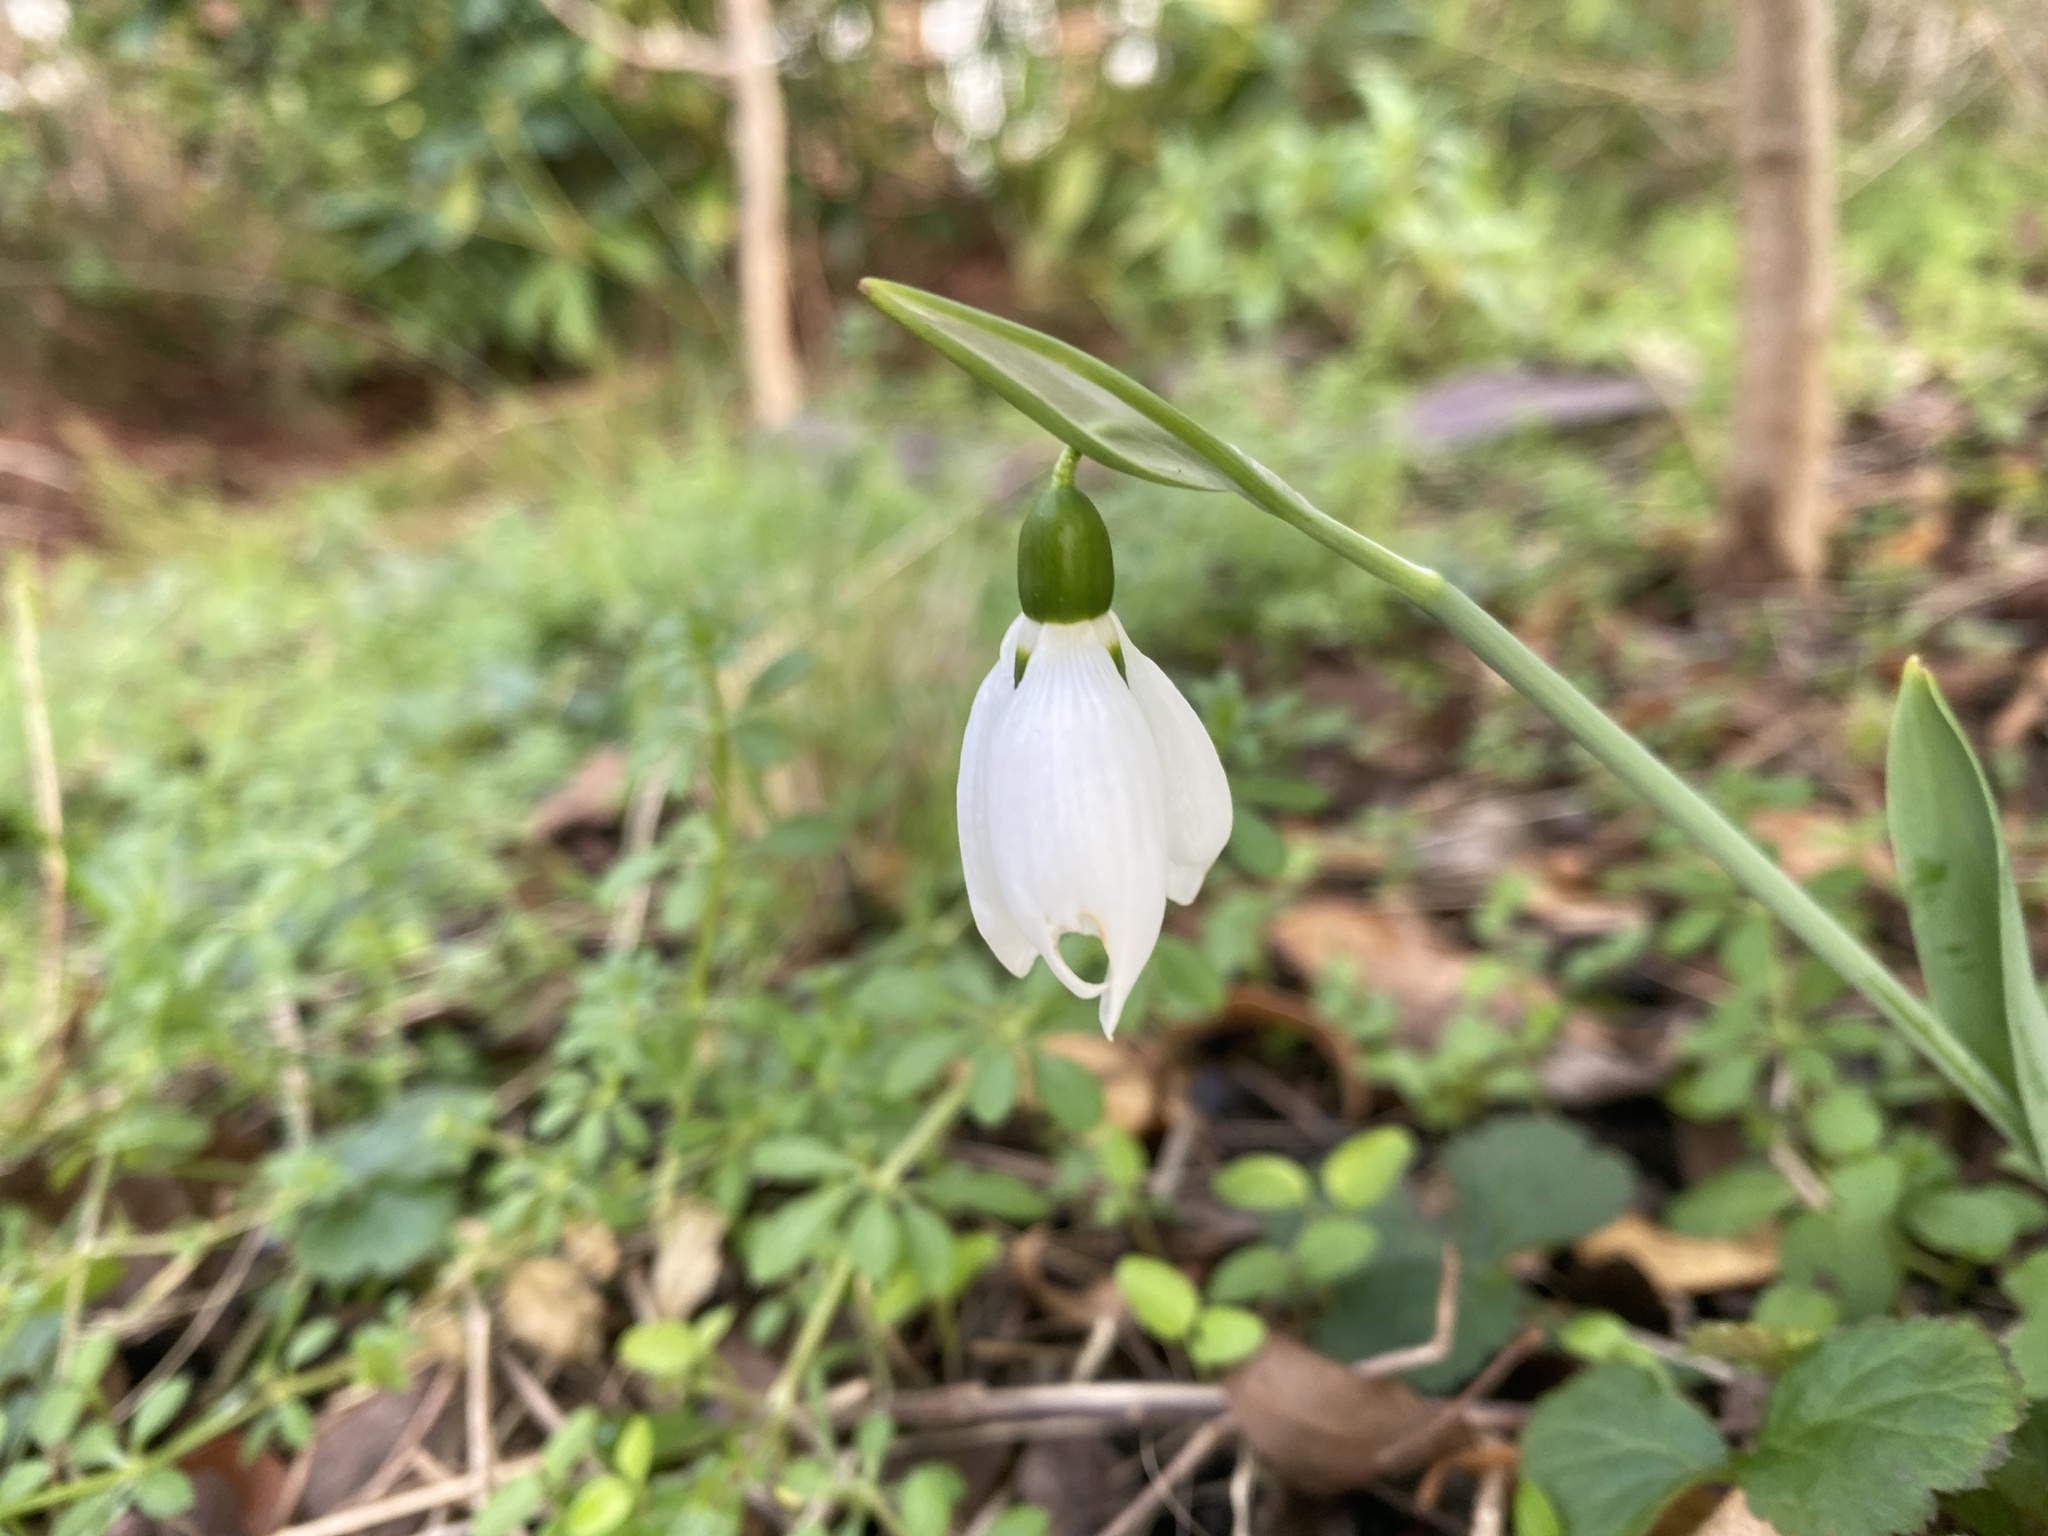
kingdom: Plantae
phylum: Tracheophyta
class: Liliopsida
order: Asparagales
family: Amaryllidaceae
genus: Galanthus
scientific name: Galanthus elwesii
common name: Greater snowdrop
